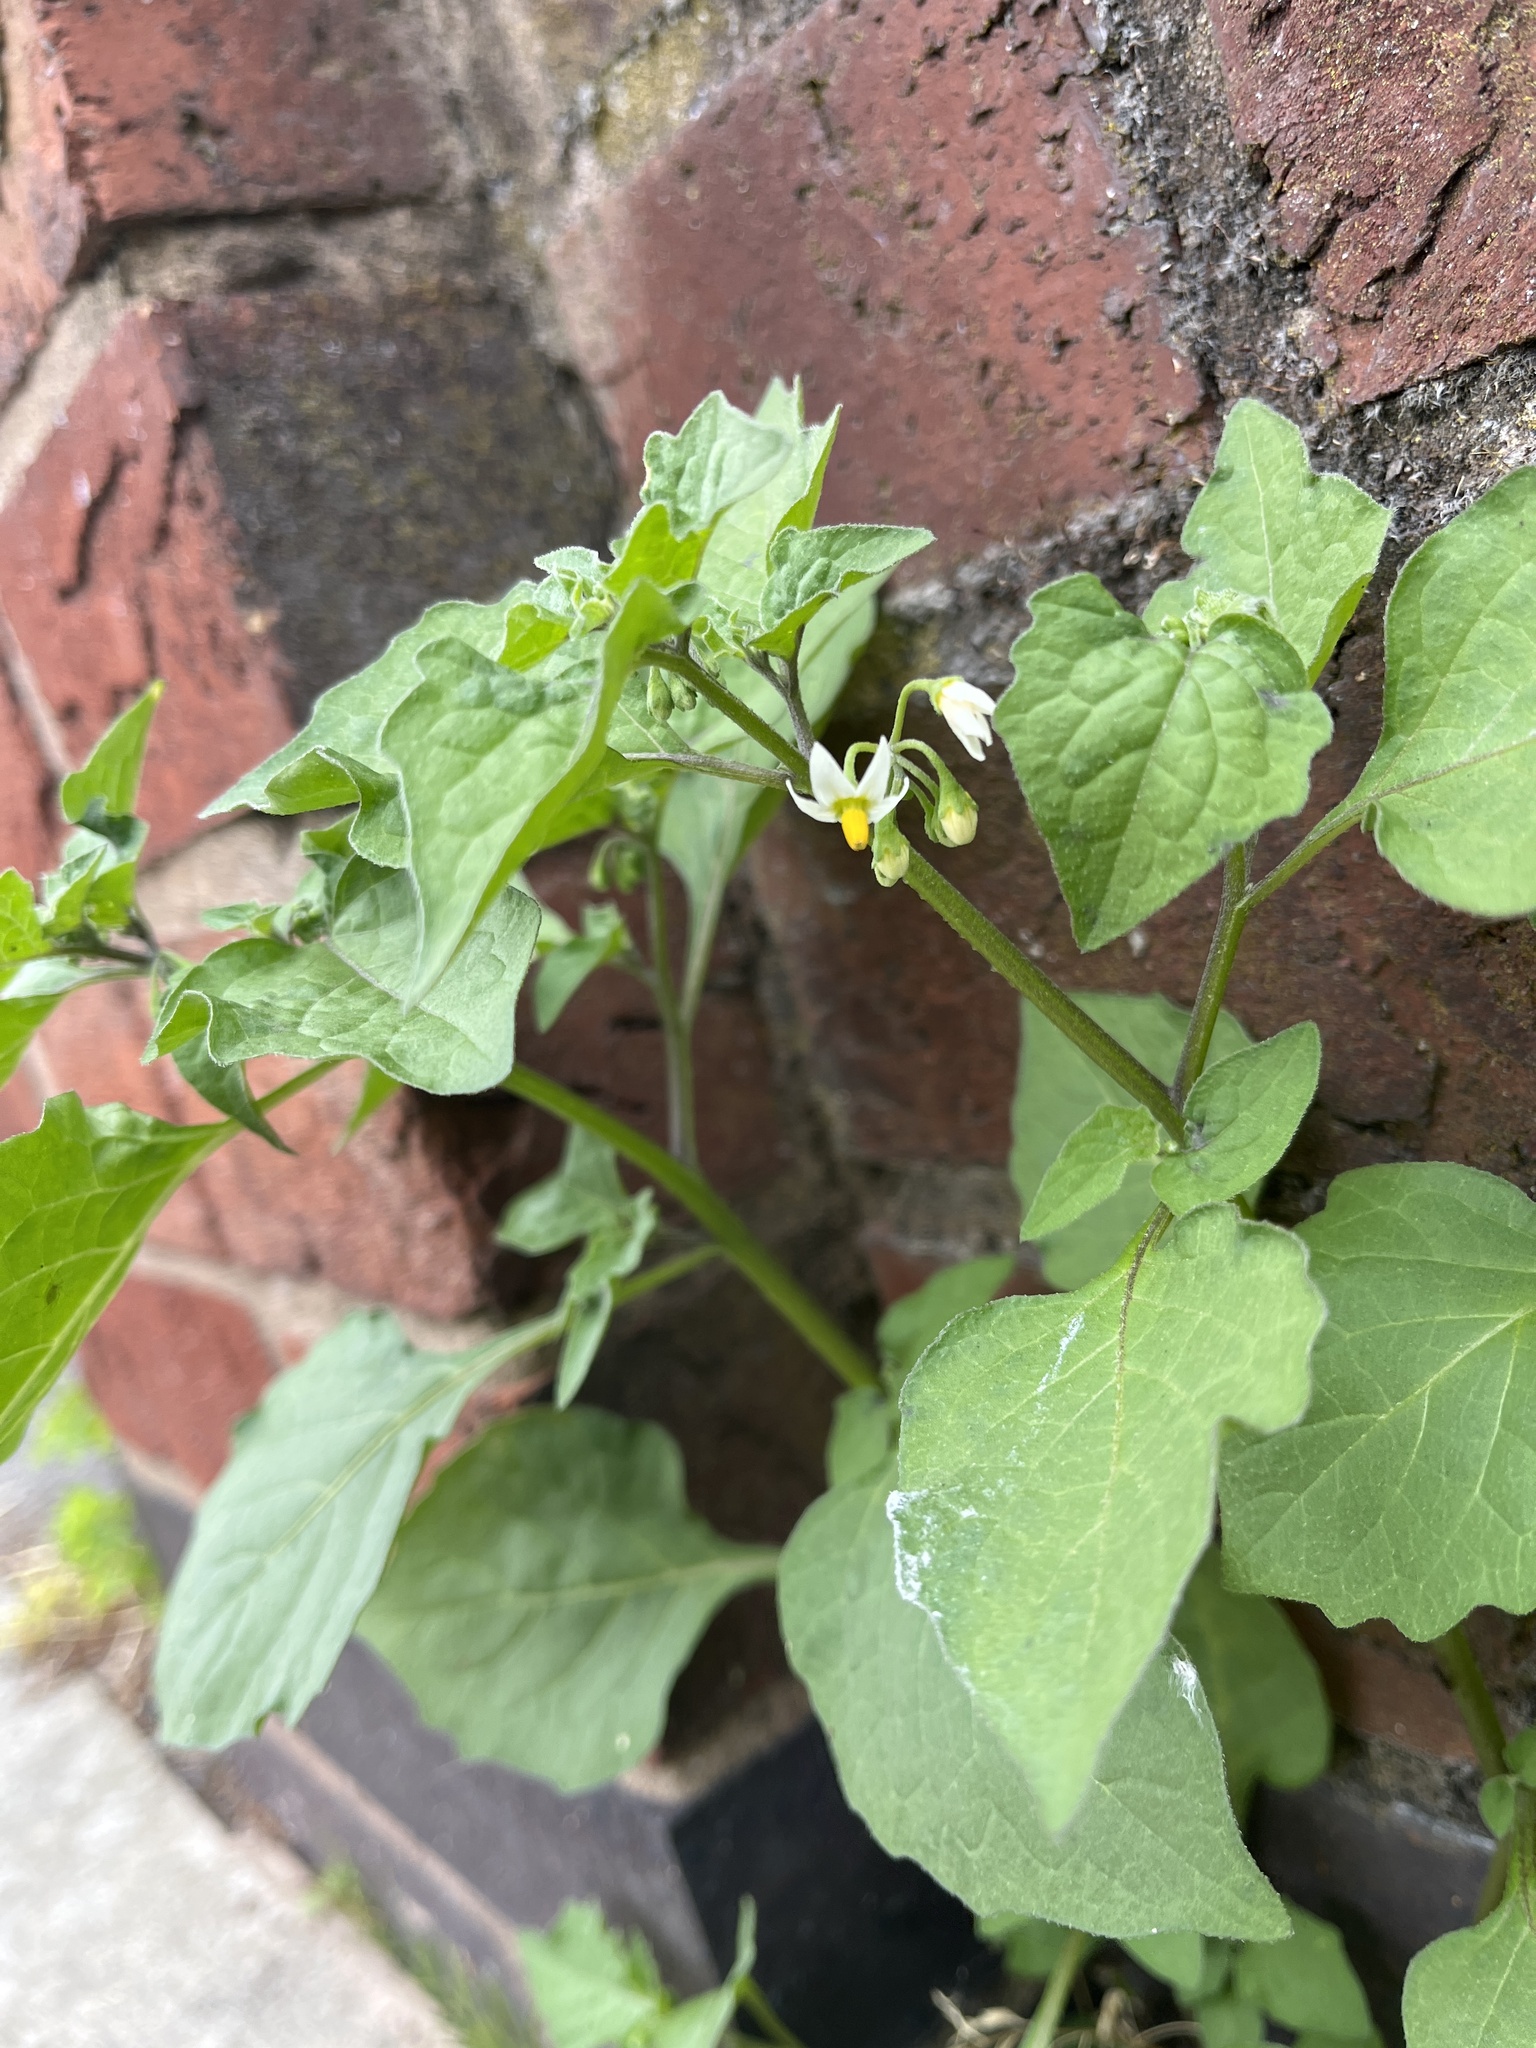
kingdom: Plantae
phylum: Tracheophyta
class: Magnoliopsida
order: Solanales
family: Solanaceae
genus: Solanum
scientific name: Solanum nigrum
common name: Black nightshade
